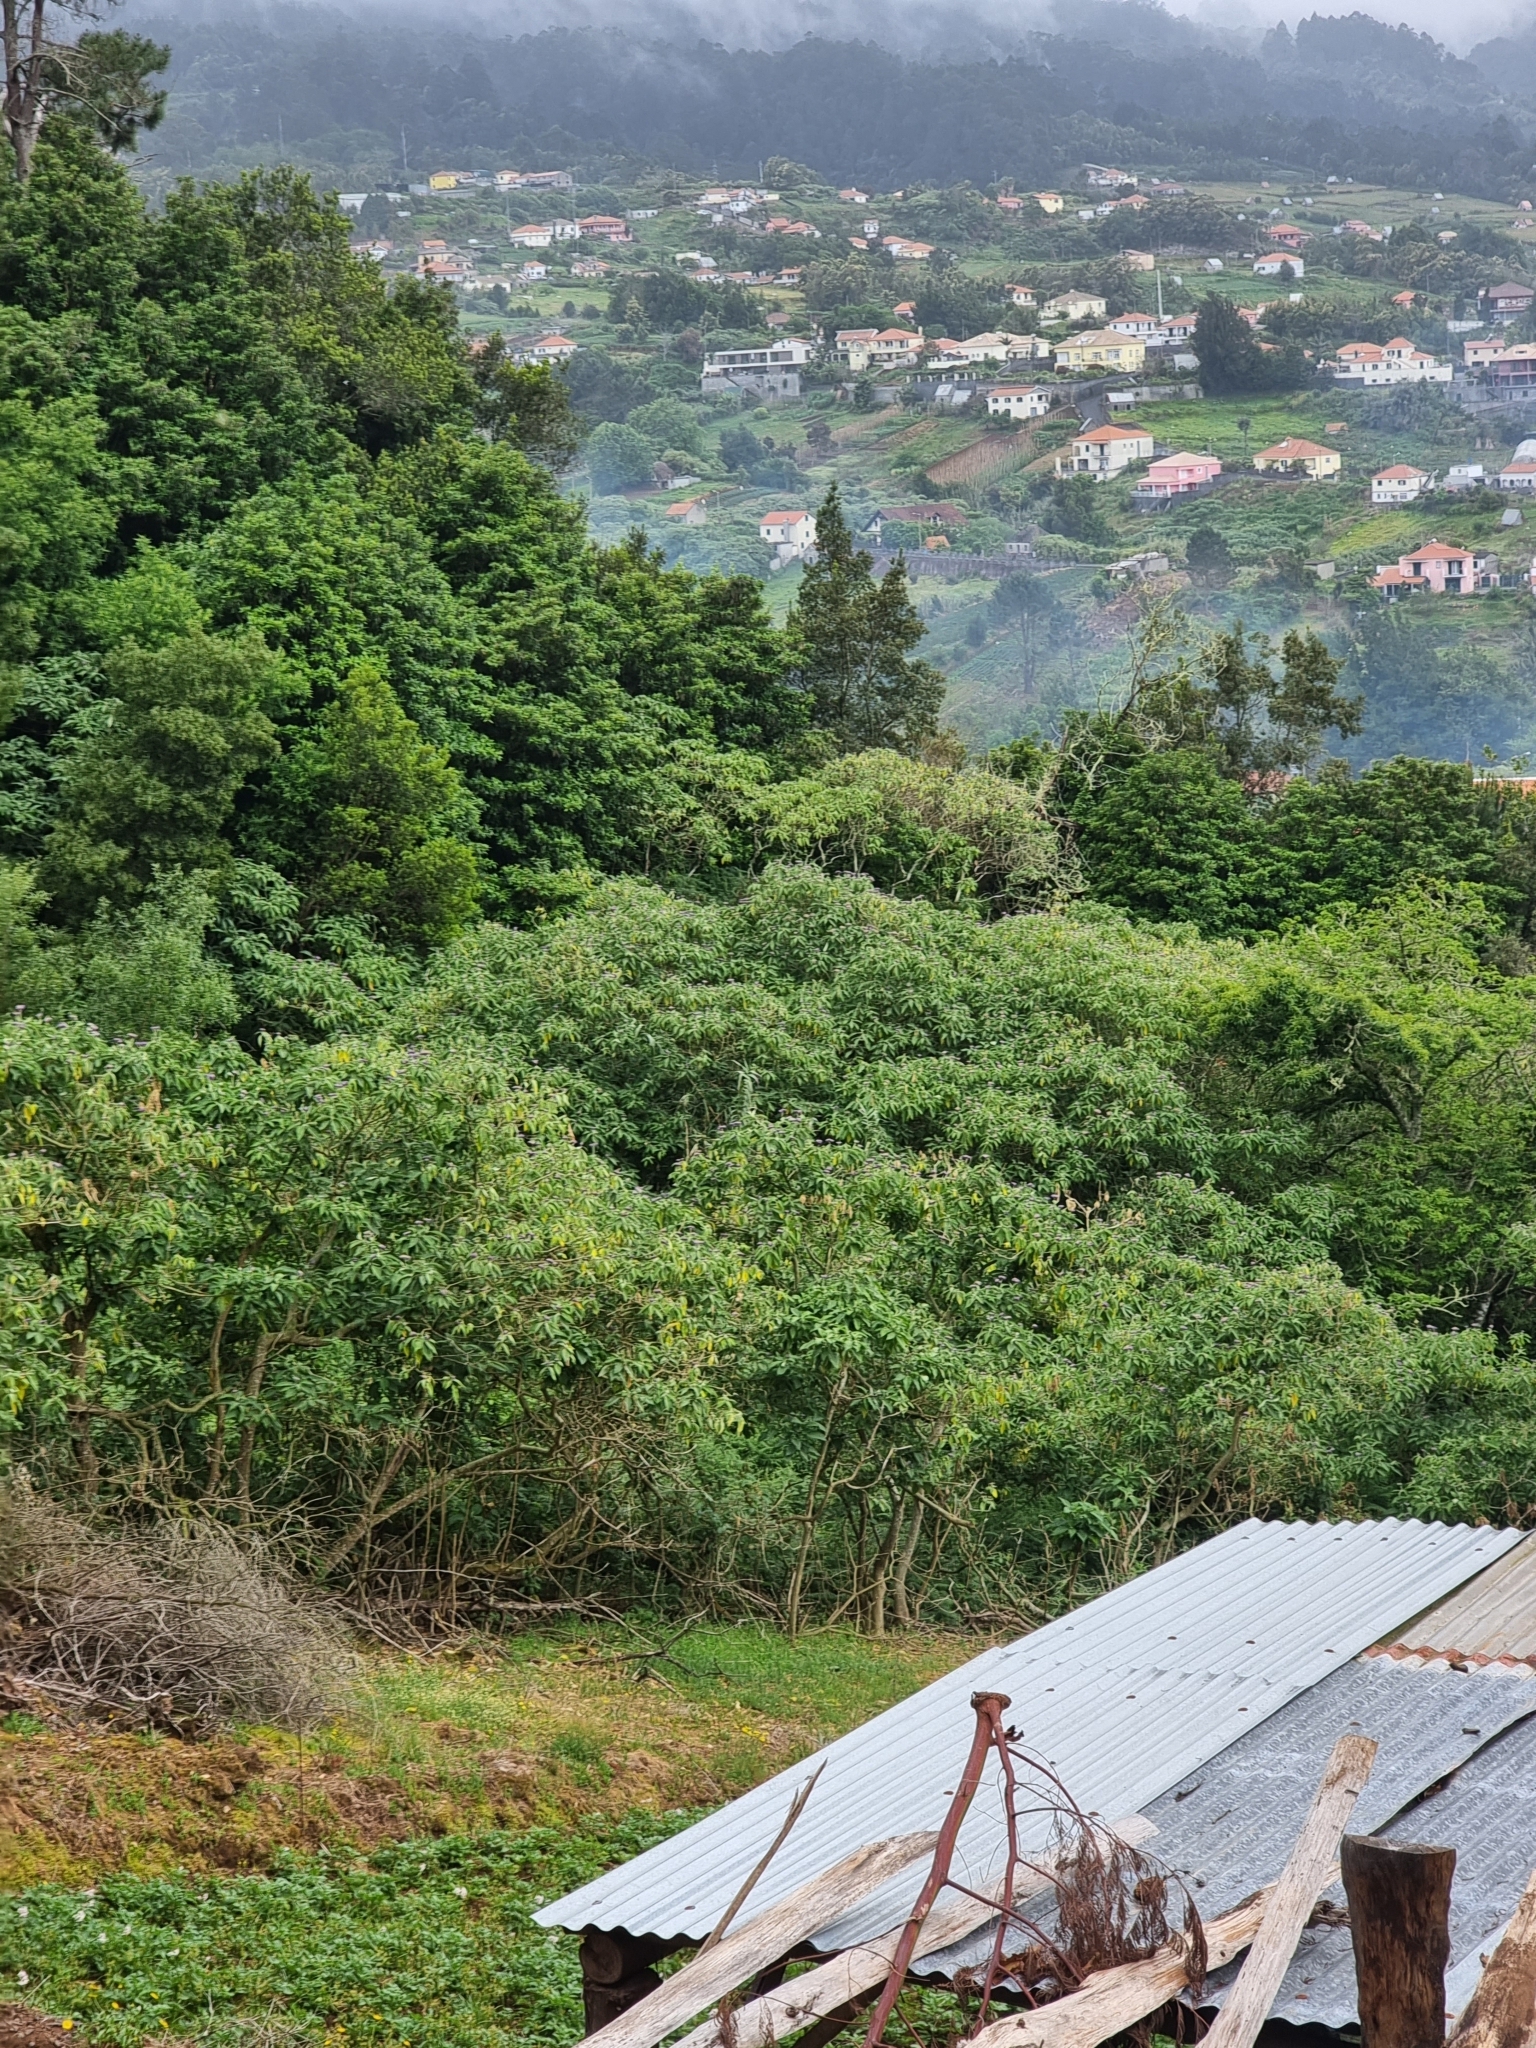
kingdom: Plantae
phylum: Tracheophyta
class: Magnoliopsida
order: Solanales
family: Solanaceae
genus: Solanum
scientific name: Solanum mauritianum
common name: Earleaf nightshade
